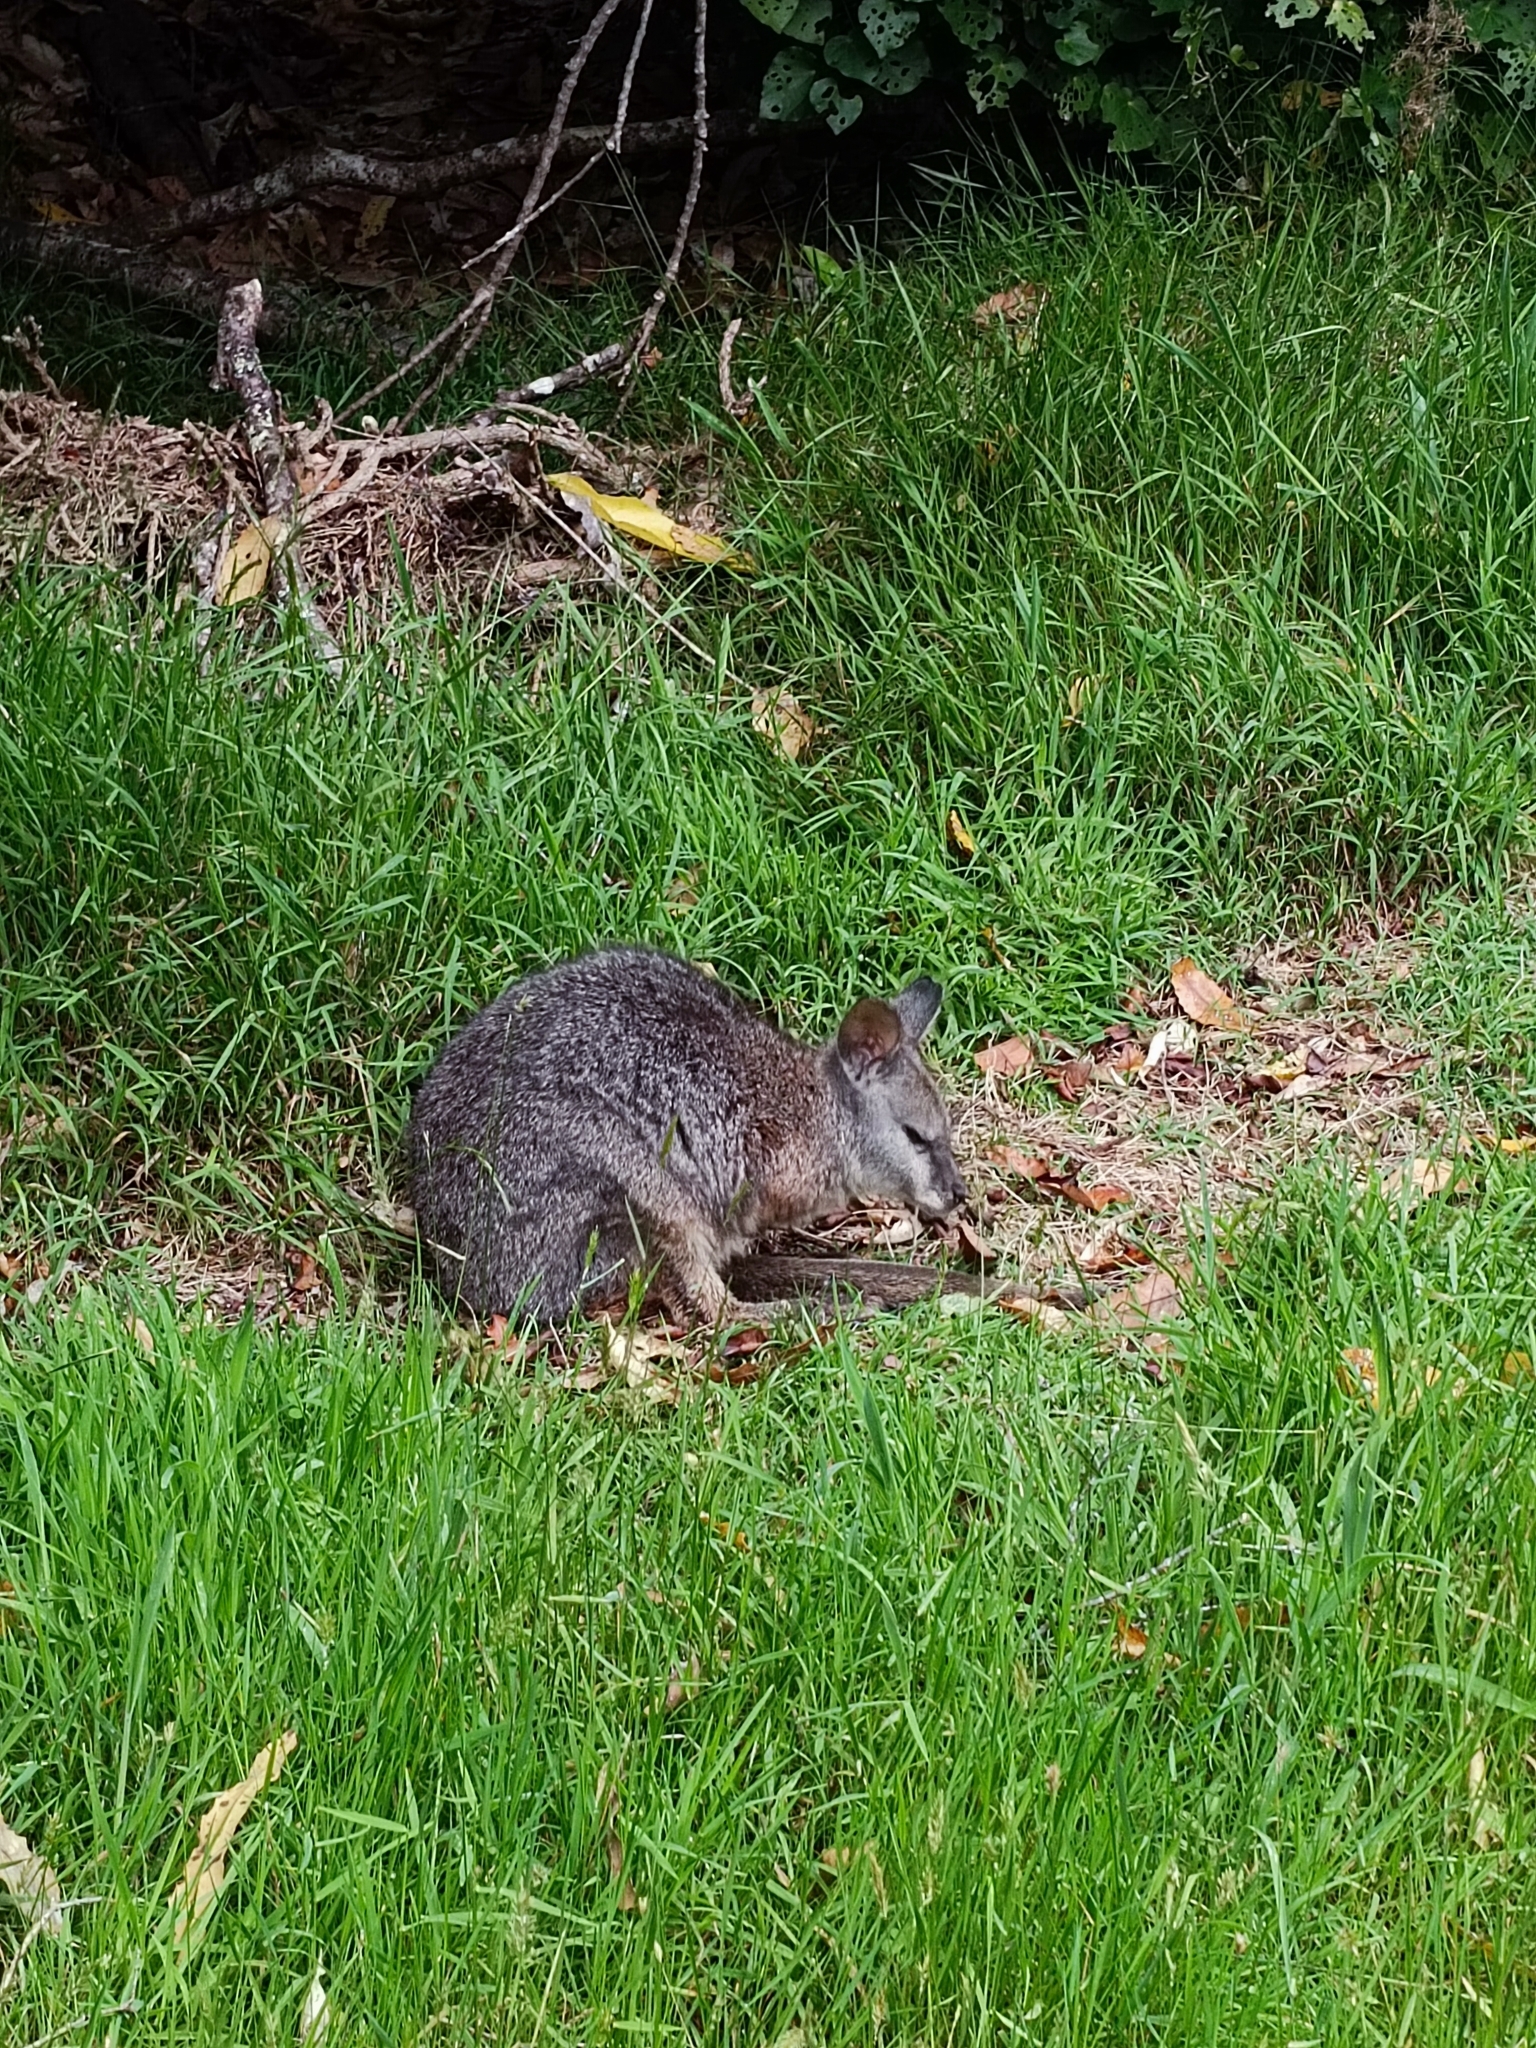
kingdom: Animalia
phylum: Chordata
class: Mammalia
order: Diprotodontia
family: Macropodidae
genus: Macropus
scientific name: Macropus eugenii
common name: Tammar wallaby
